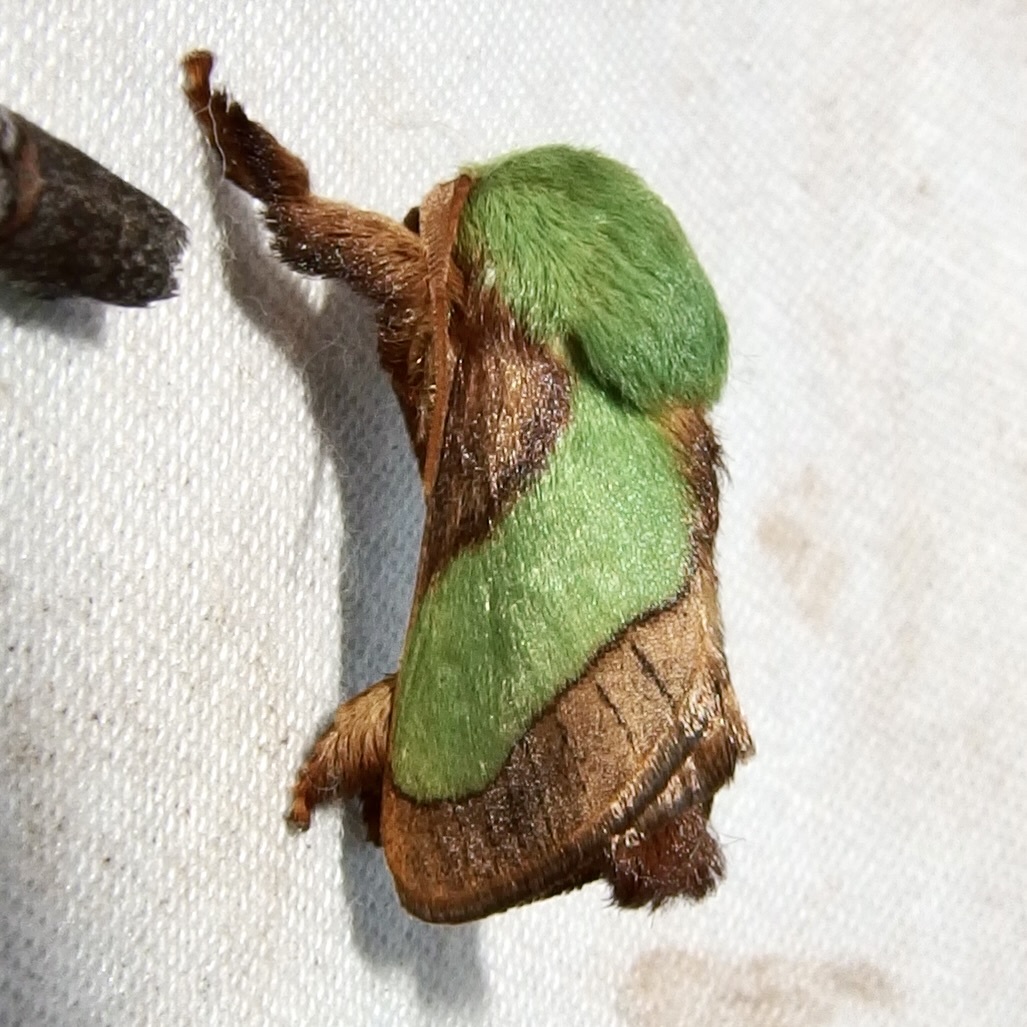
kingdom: Animalia
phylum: Arthropoda
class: Insecta
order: Lepidoptera
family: Limacodidae
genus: Parasa
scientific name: Parasa chloris
